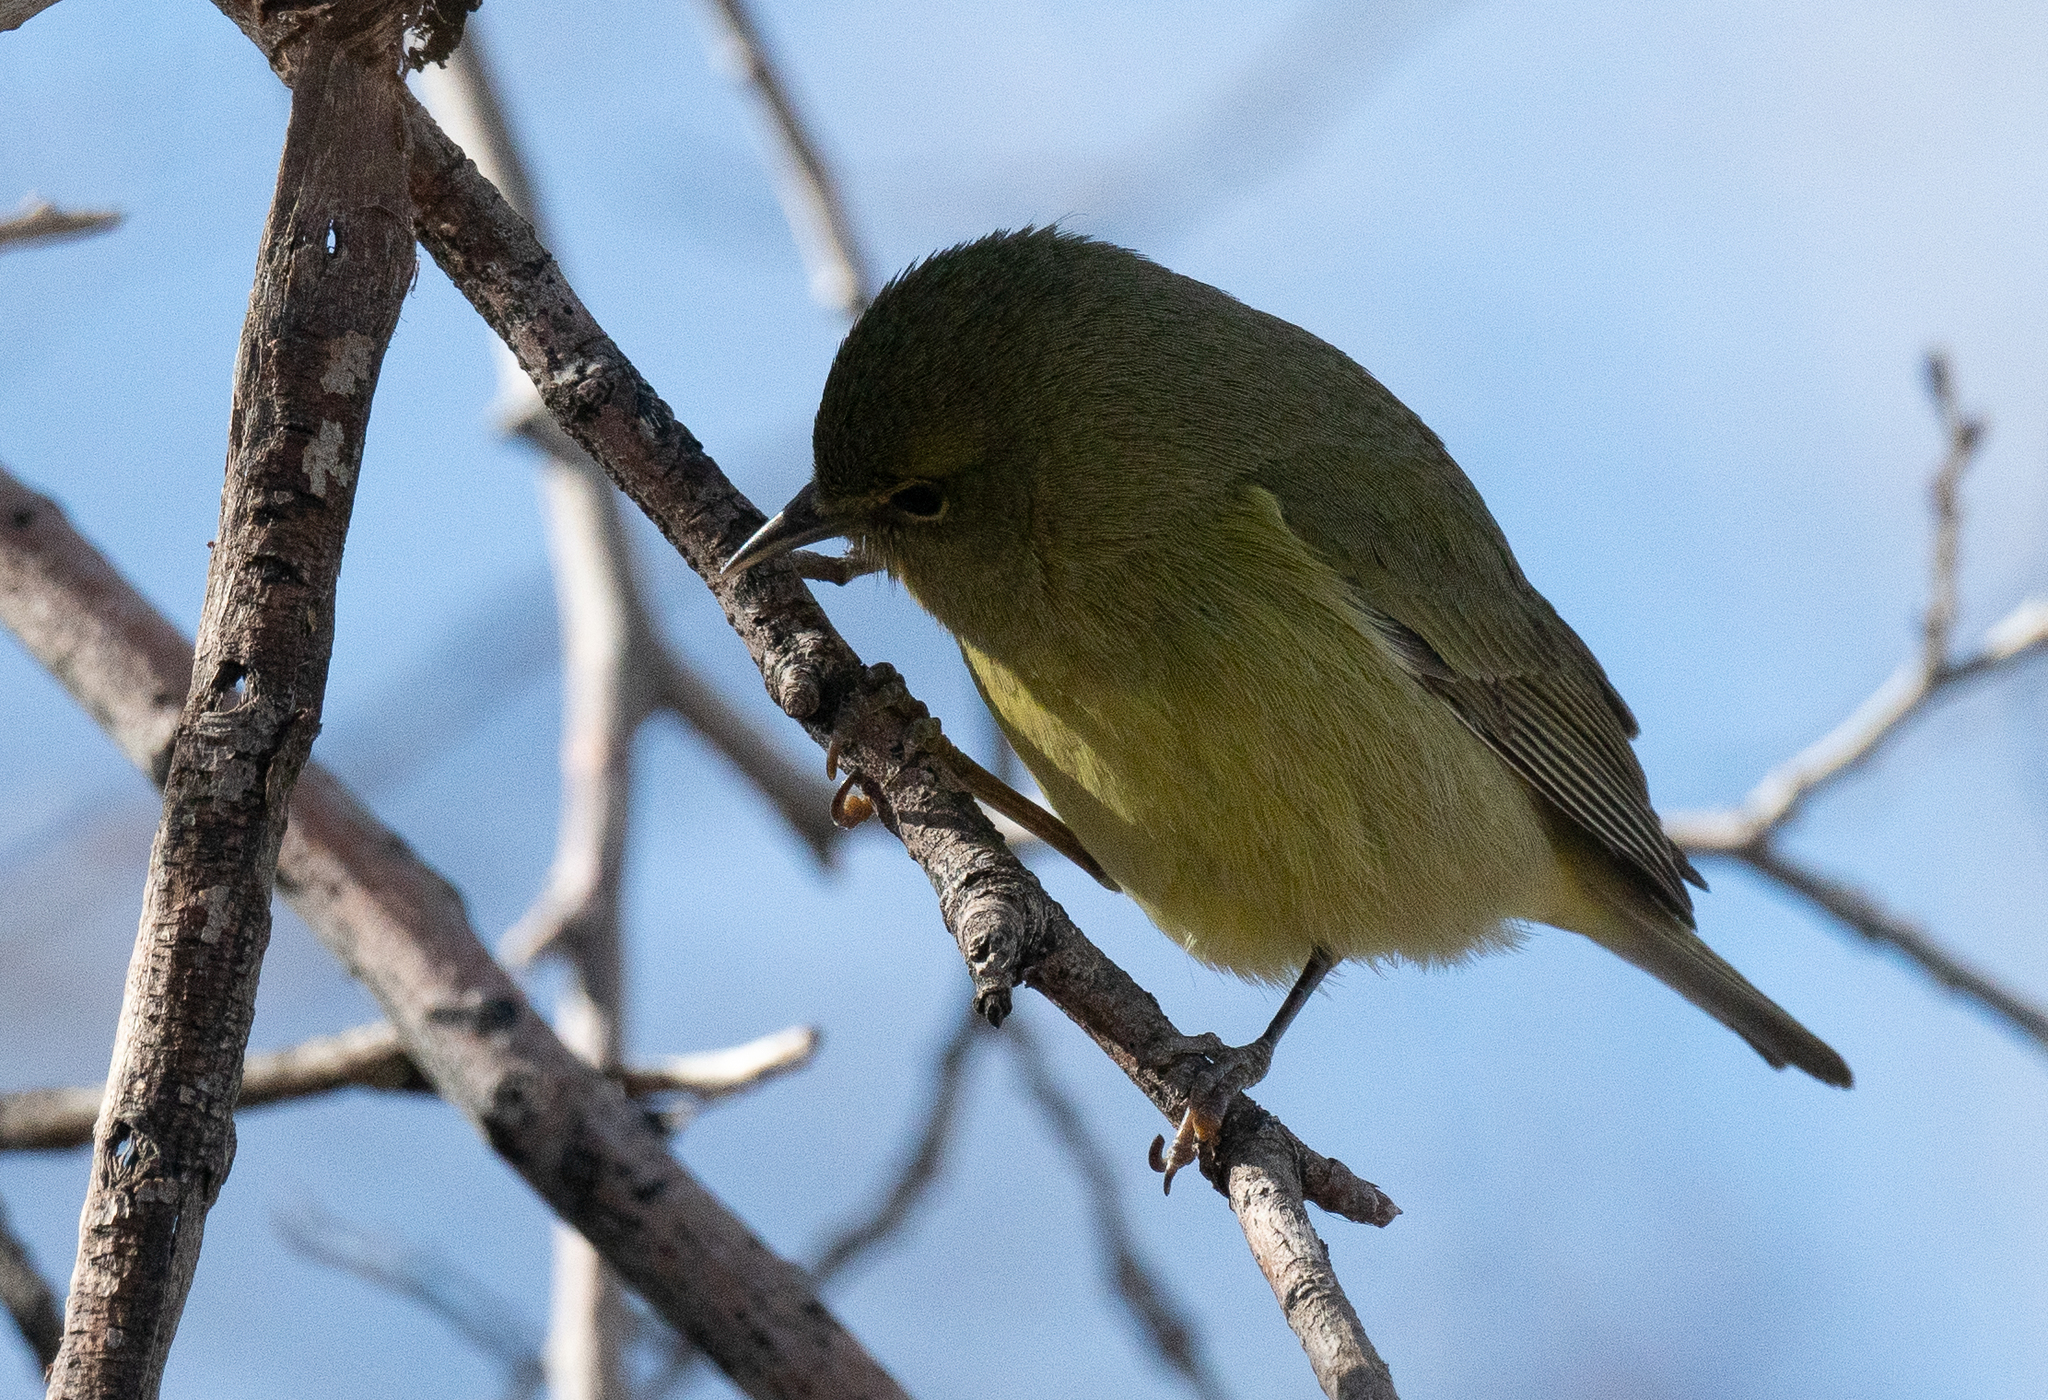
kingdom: Animalia
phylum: Chordata
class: Aves
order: Passeriformes
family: Parulidae
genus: Leiothlypis
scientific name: Leiothlypis celata
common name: Orange-crowned warbler
